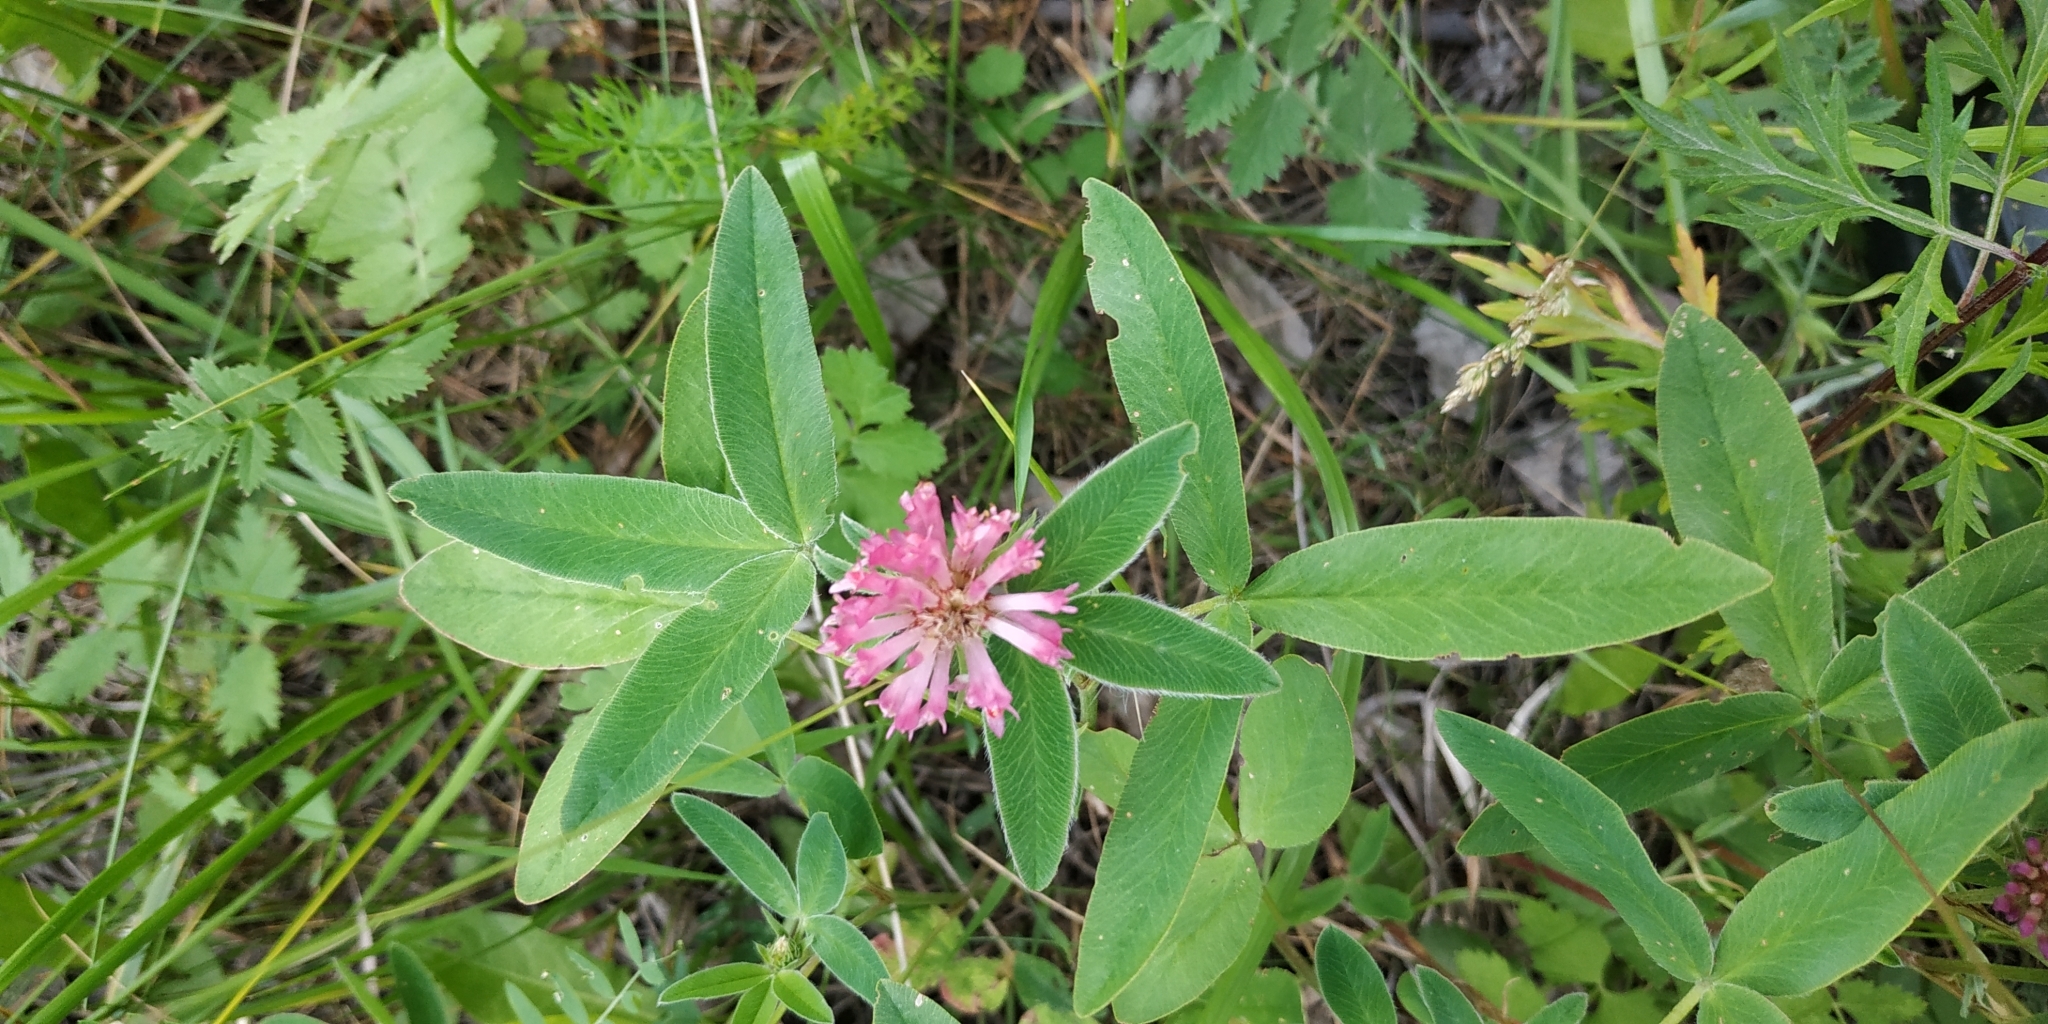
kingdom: Plantae
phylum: Tracheophyta
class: Magnoliopsida
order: Fabales
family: Fabaceae
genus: Trifolium
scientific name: Trifolium medium
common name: Zigzag clover
